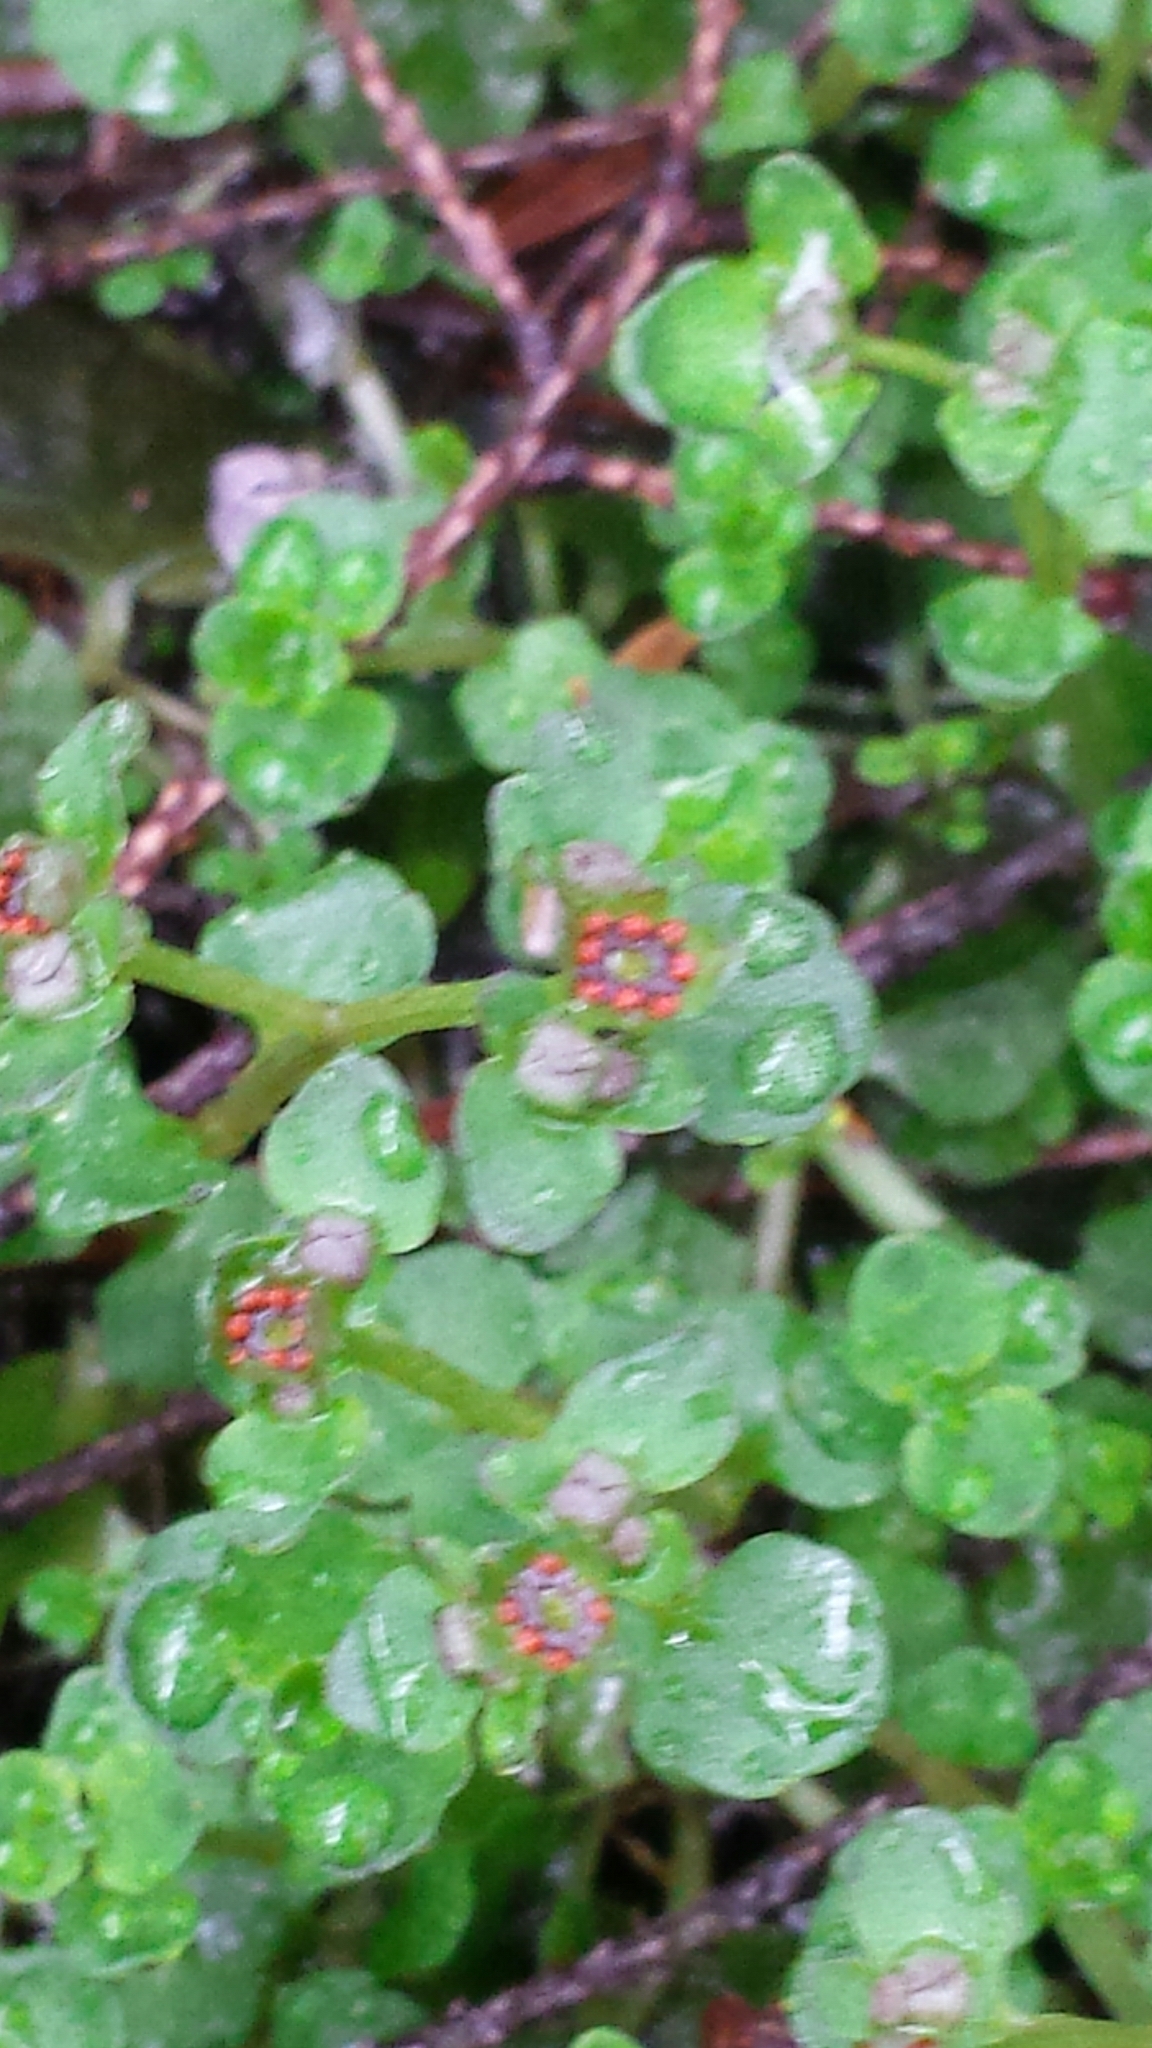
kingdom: Plantae
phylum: Tracheophyta
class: Magnoliopsida
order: Saxifragales
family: Saxifragaceae
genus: Chrysosplenium
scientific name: Chrysosplenium americanum
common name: American golden-saxifrage
